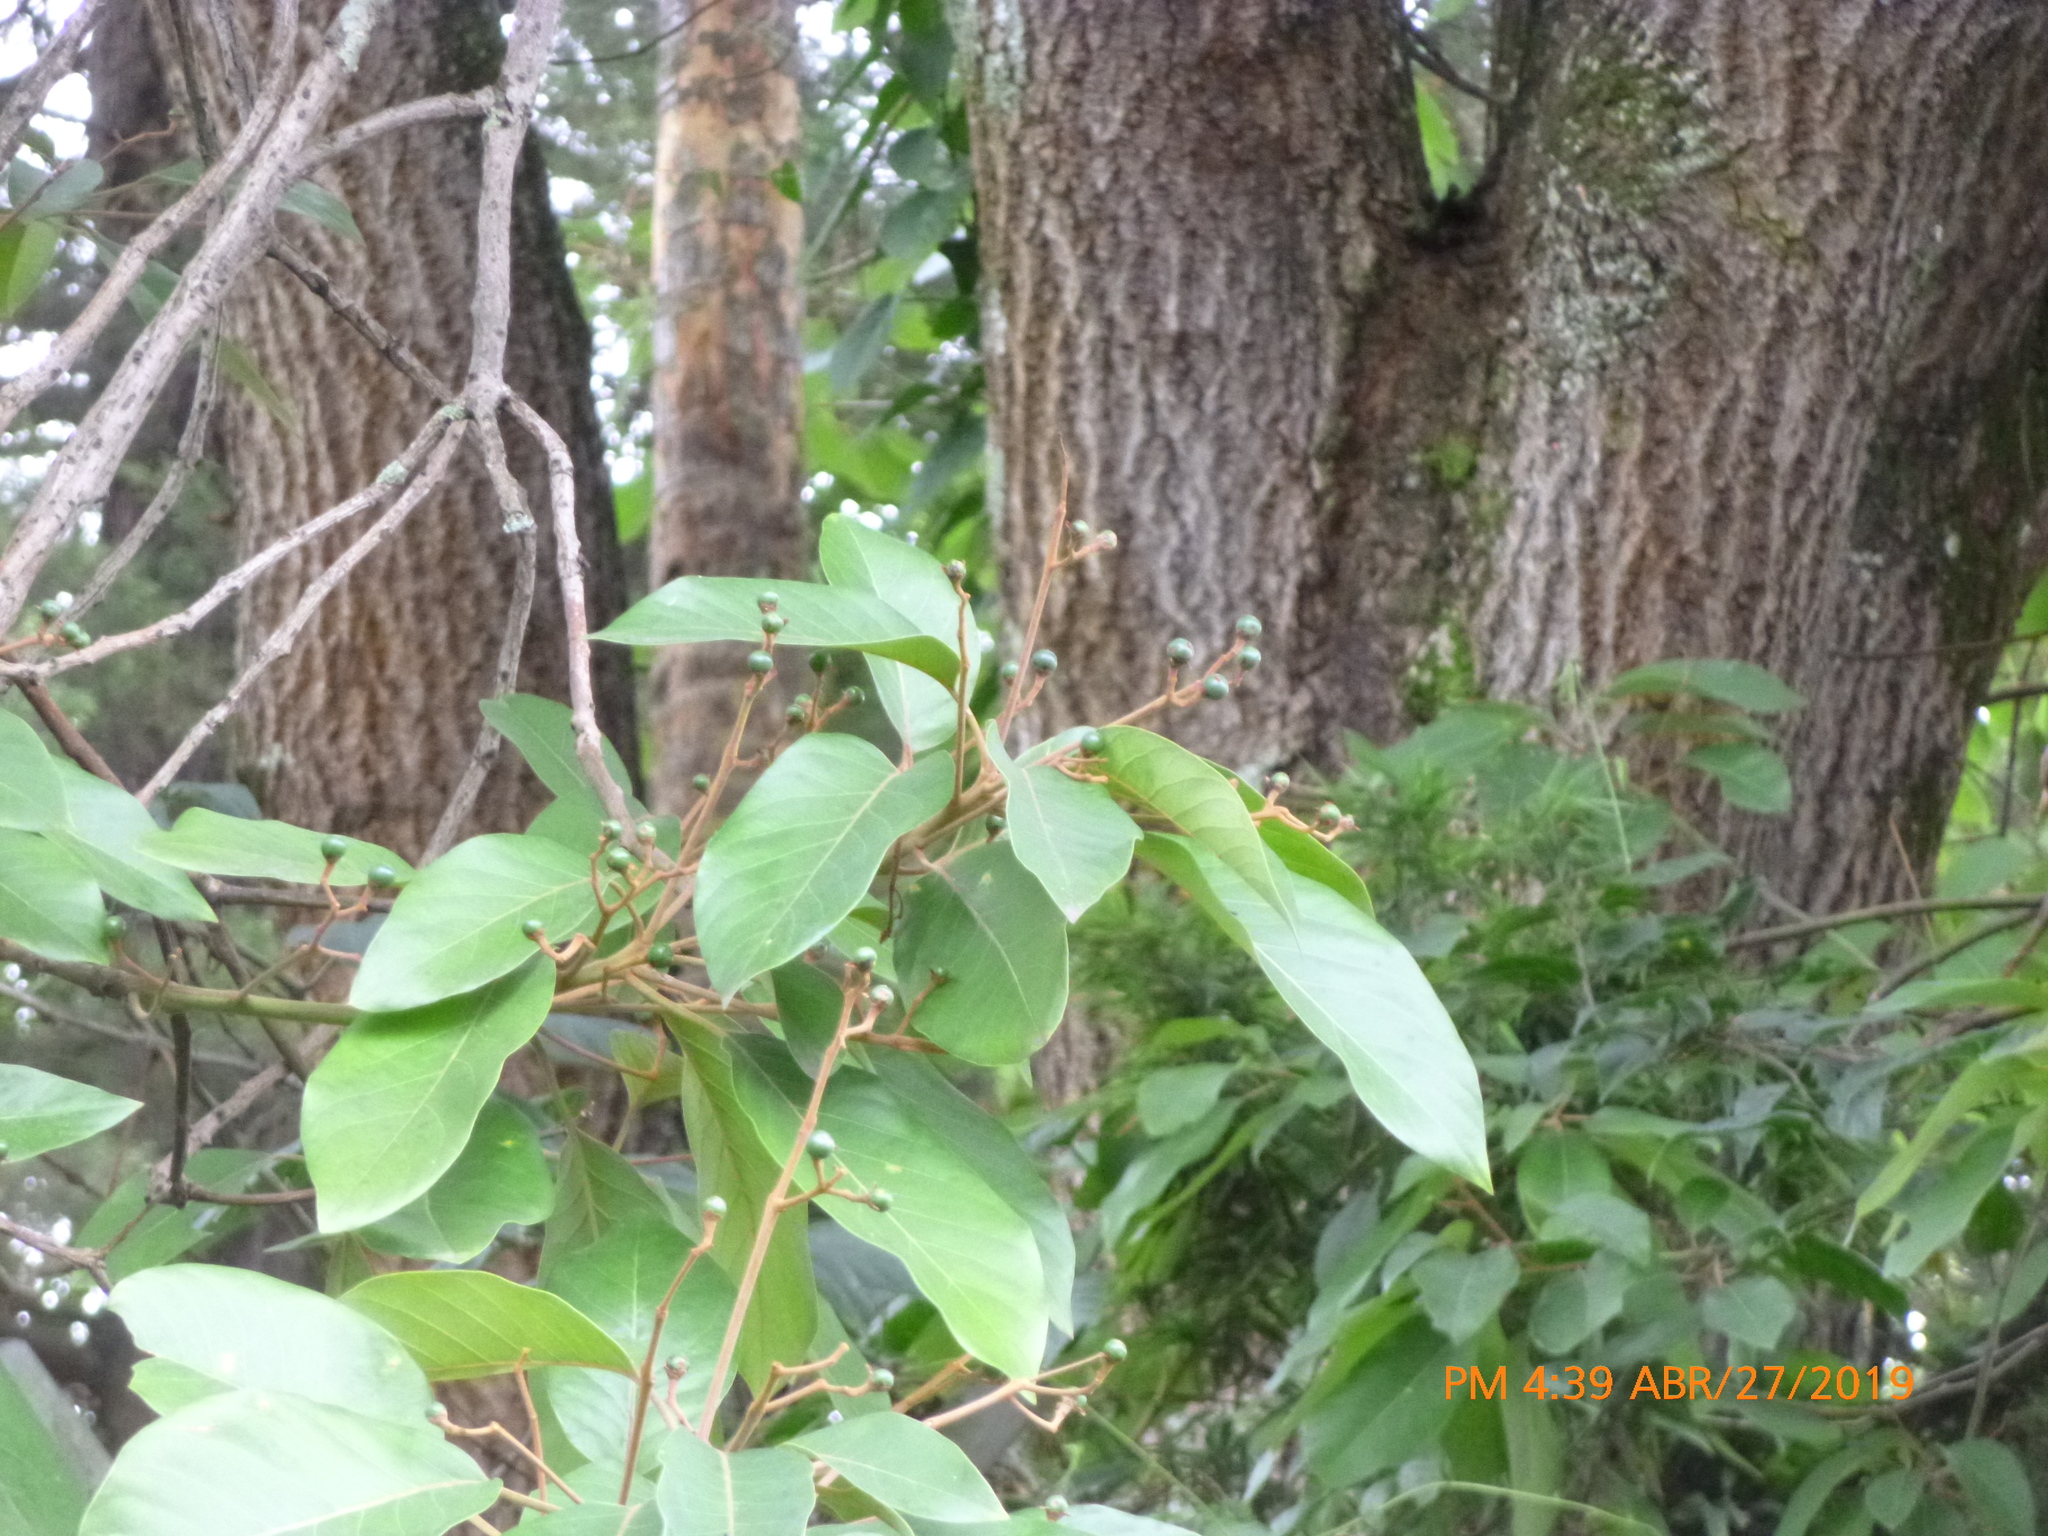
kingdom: Plantae
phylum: Tracheophyta
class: Magnoliopsida
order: Laurales
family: Lauraceae
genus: Persea
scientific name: Persea caerulea
